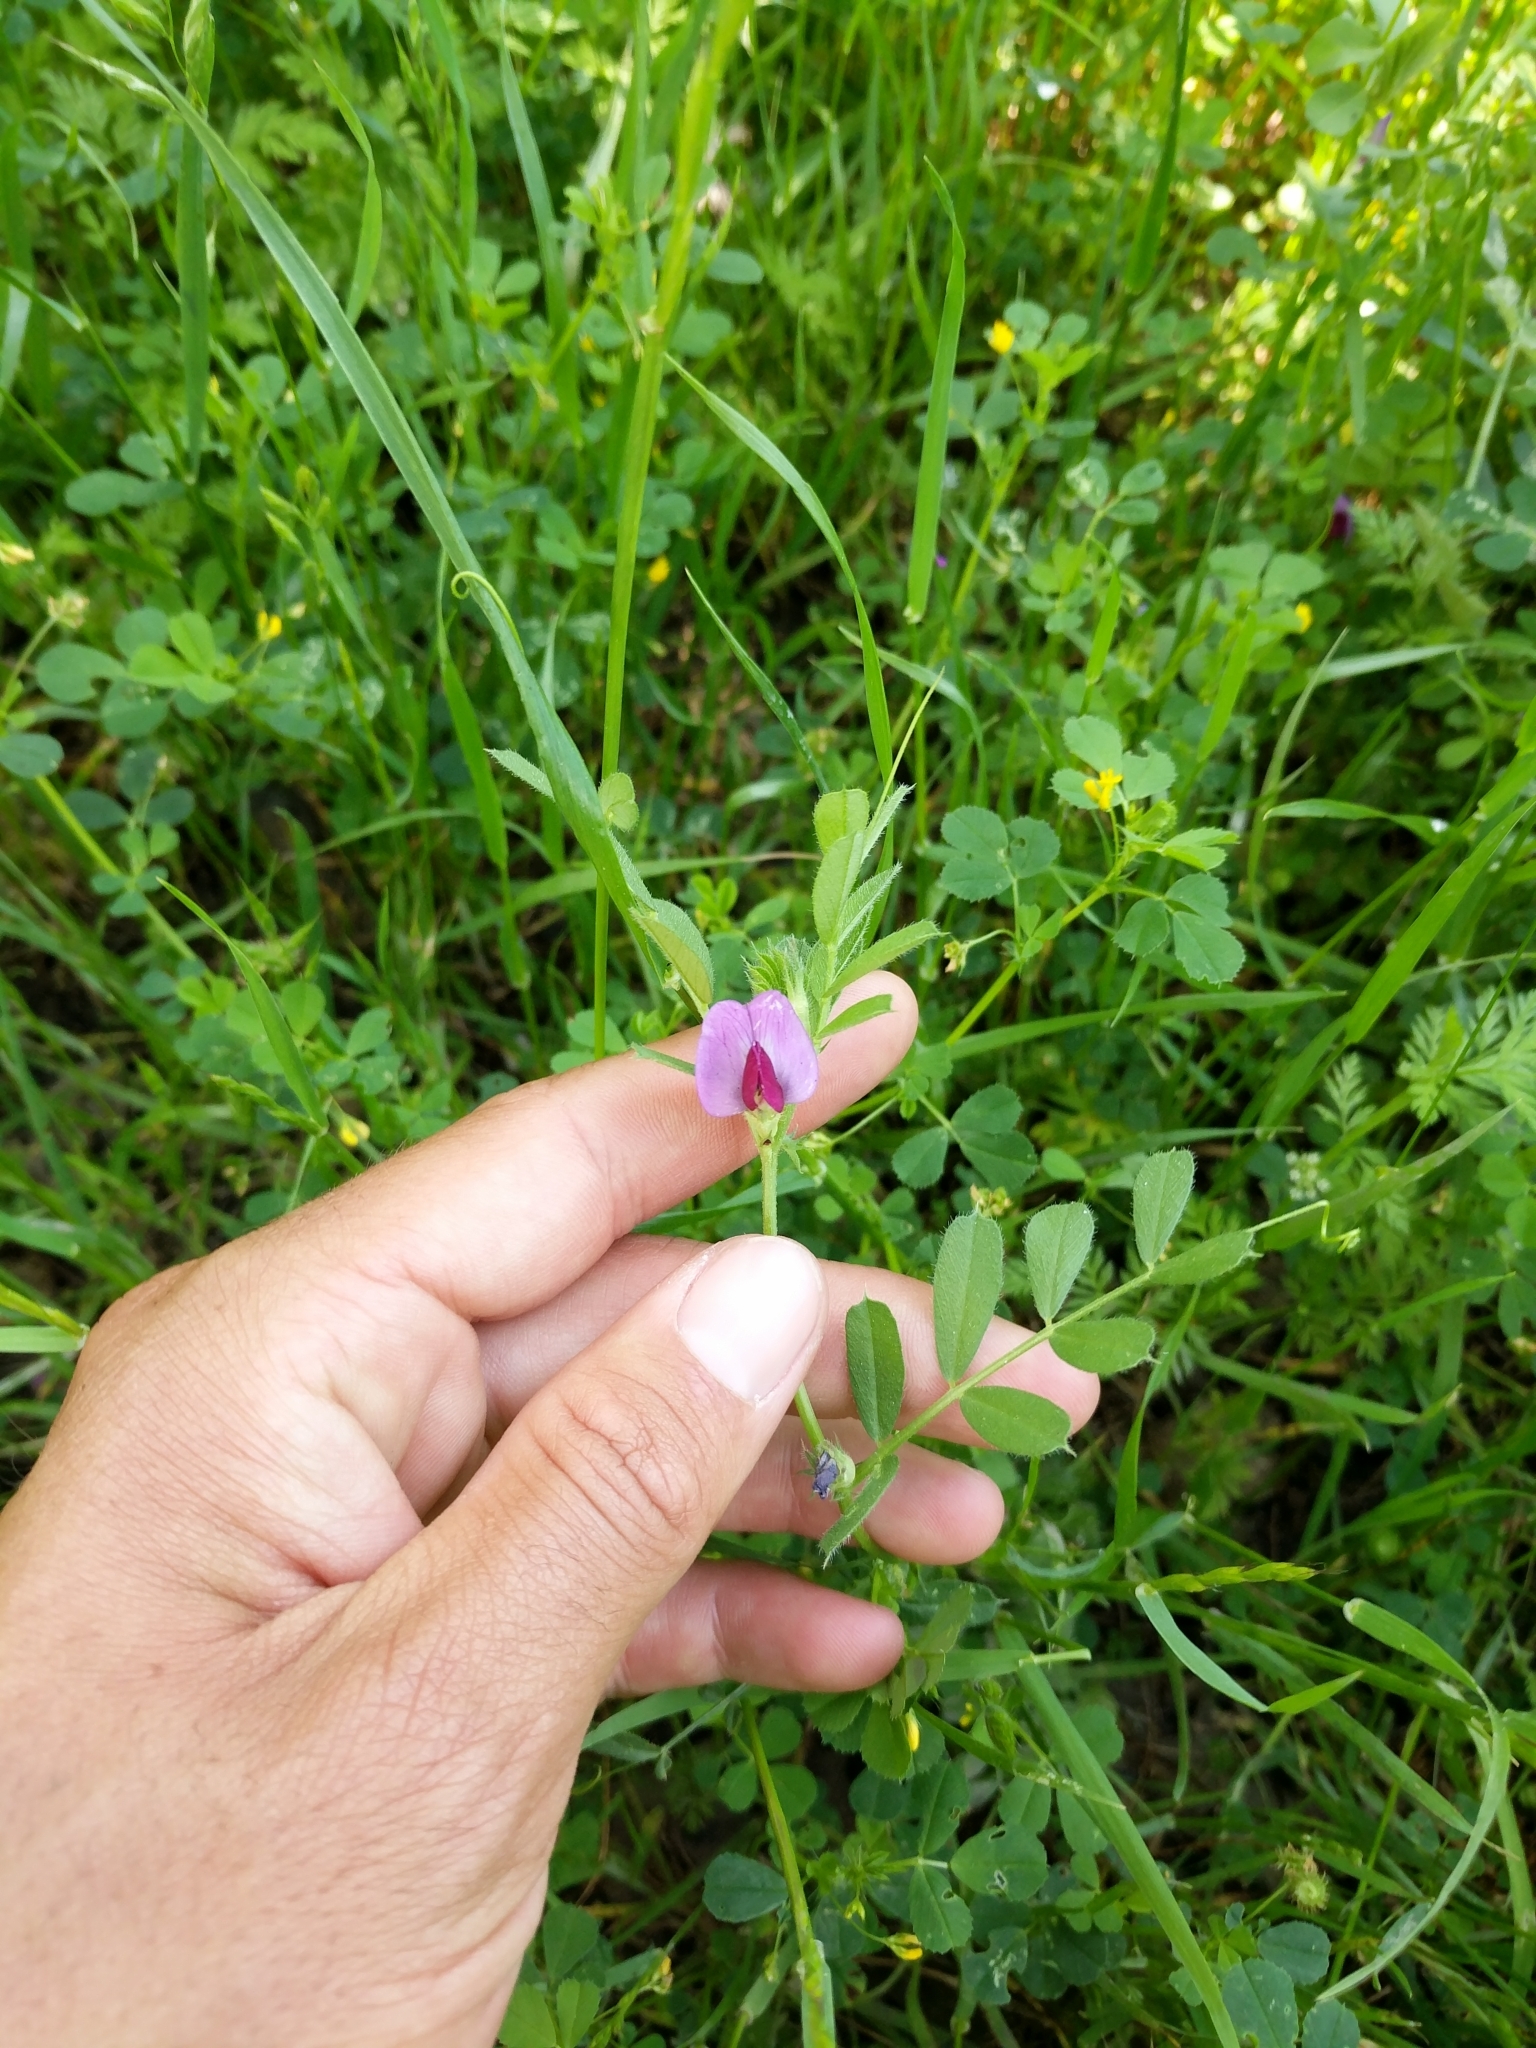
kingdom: Plantae
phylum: Tracheophyta
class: Magnoliopsida
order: Fabales
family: Fabaceae
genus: Vicia
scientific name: Vicia sativa
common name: Garden vetch
